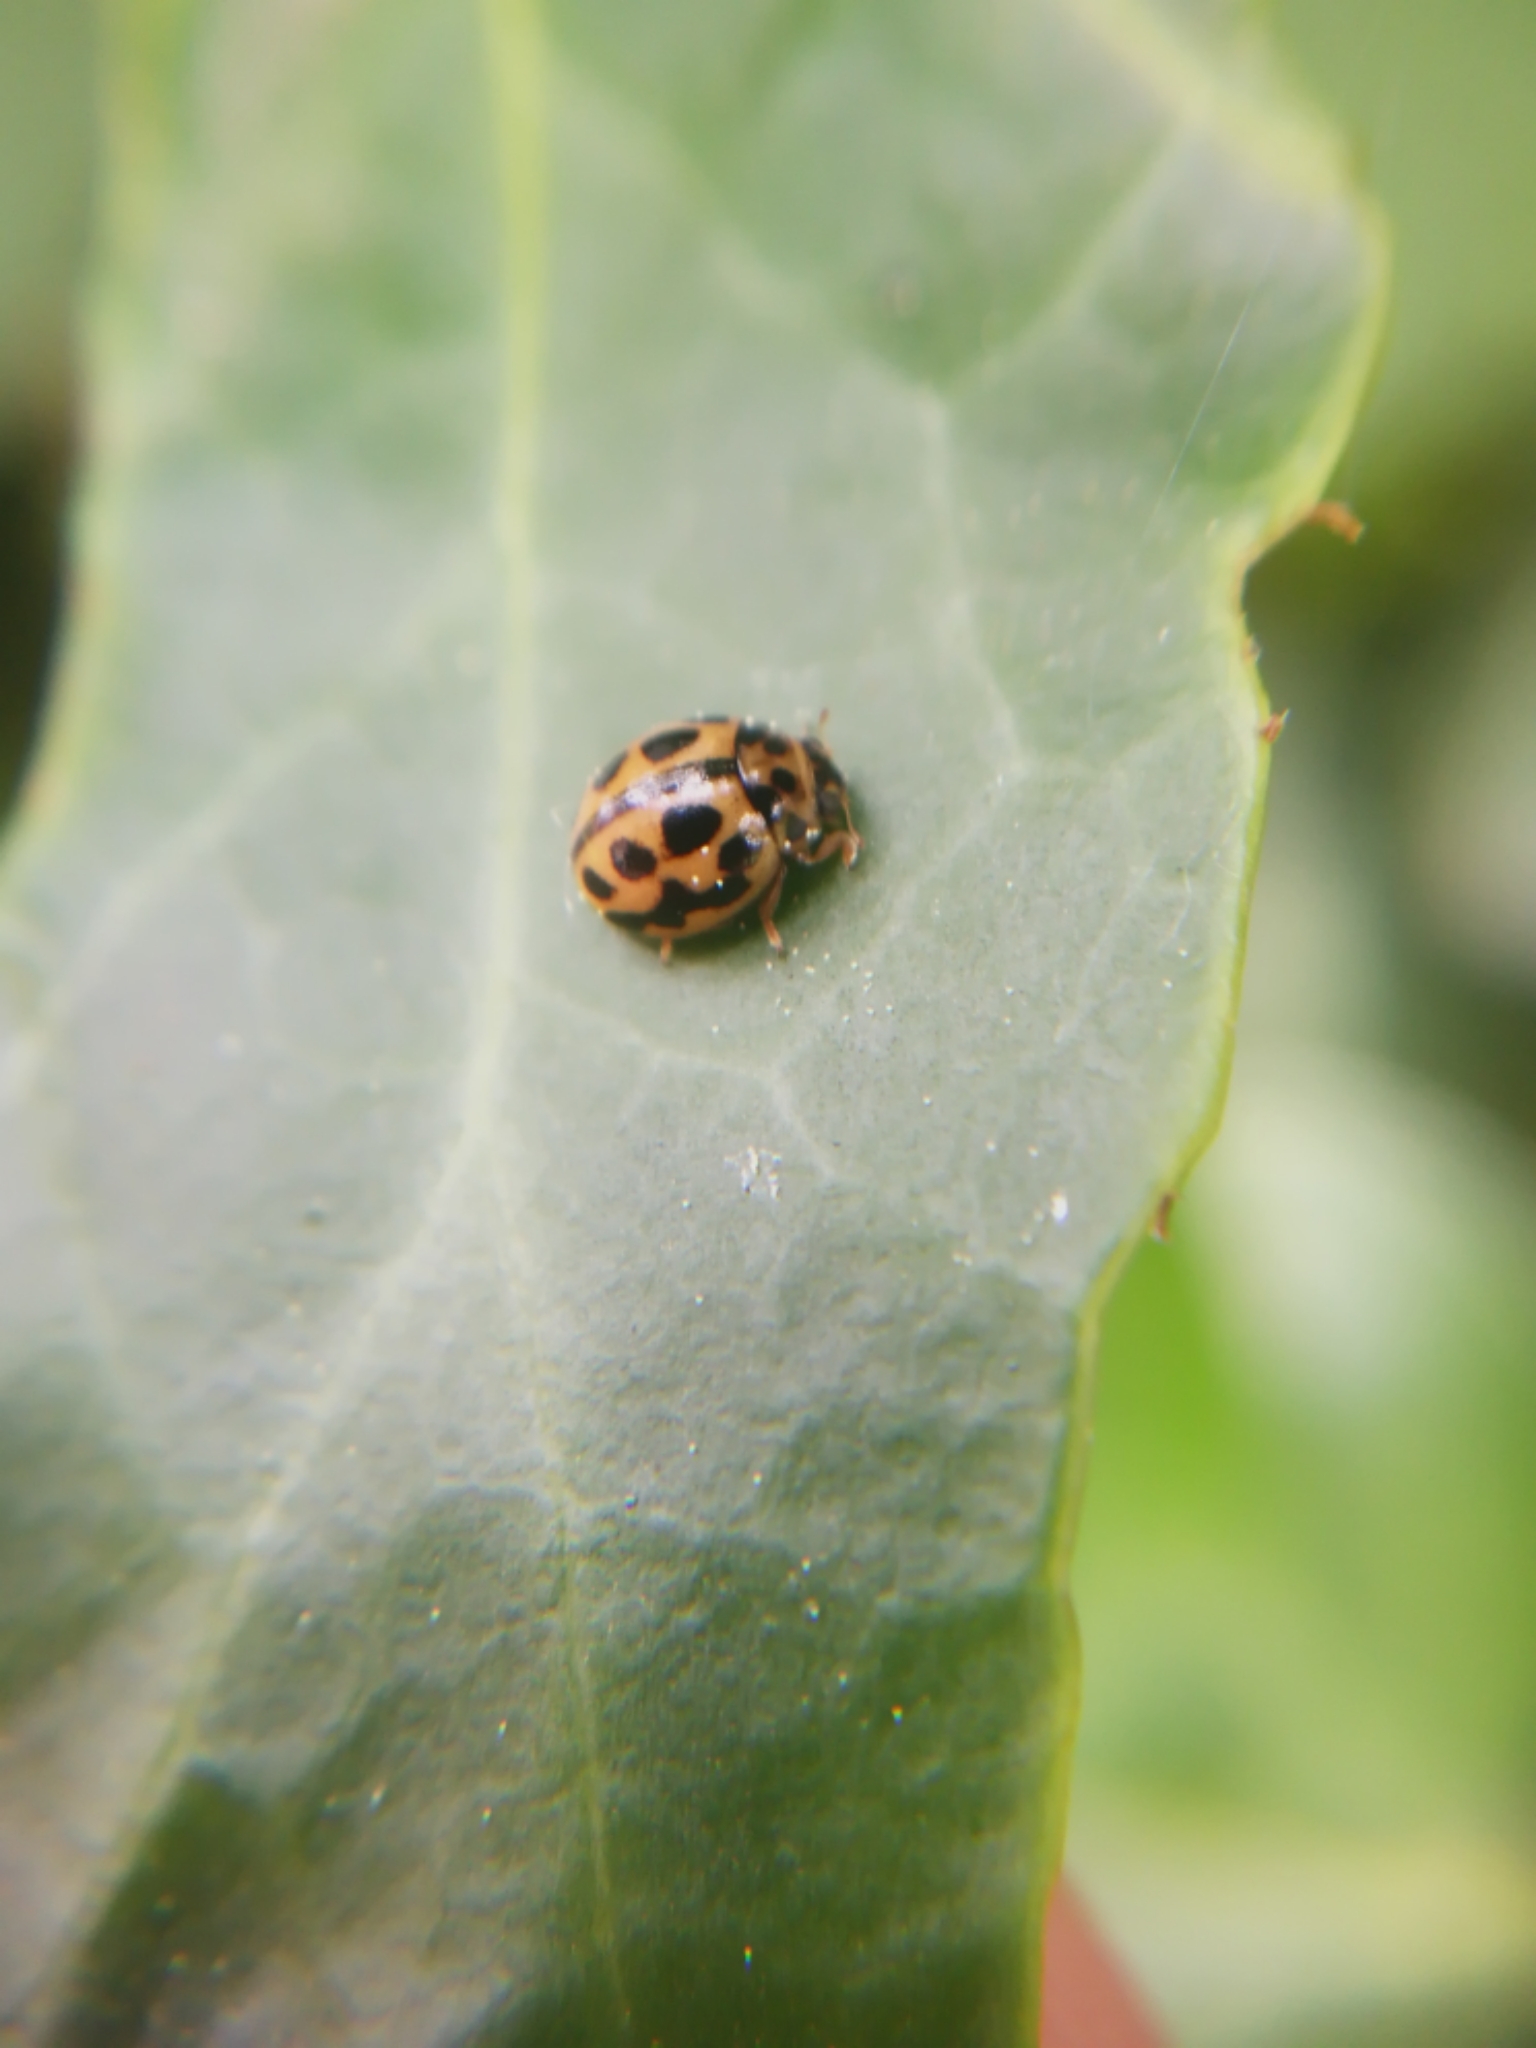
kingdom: Animalia
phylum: Arthropoda
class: Insecta
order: Coleoptera
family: Coccinellidae
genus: Tytthaspis
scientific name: Tytthaspis sedecimpunctata
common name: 16-spot ladybird
